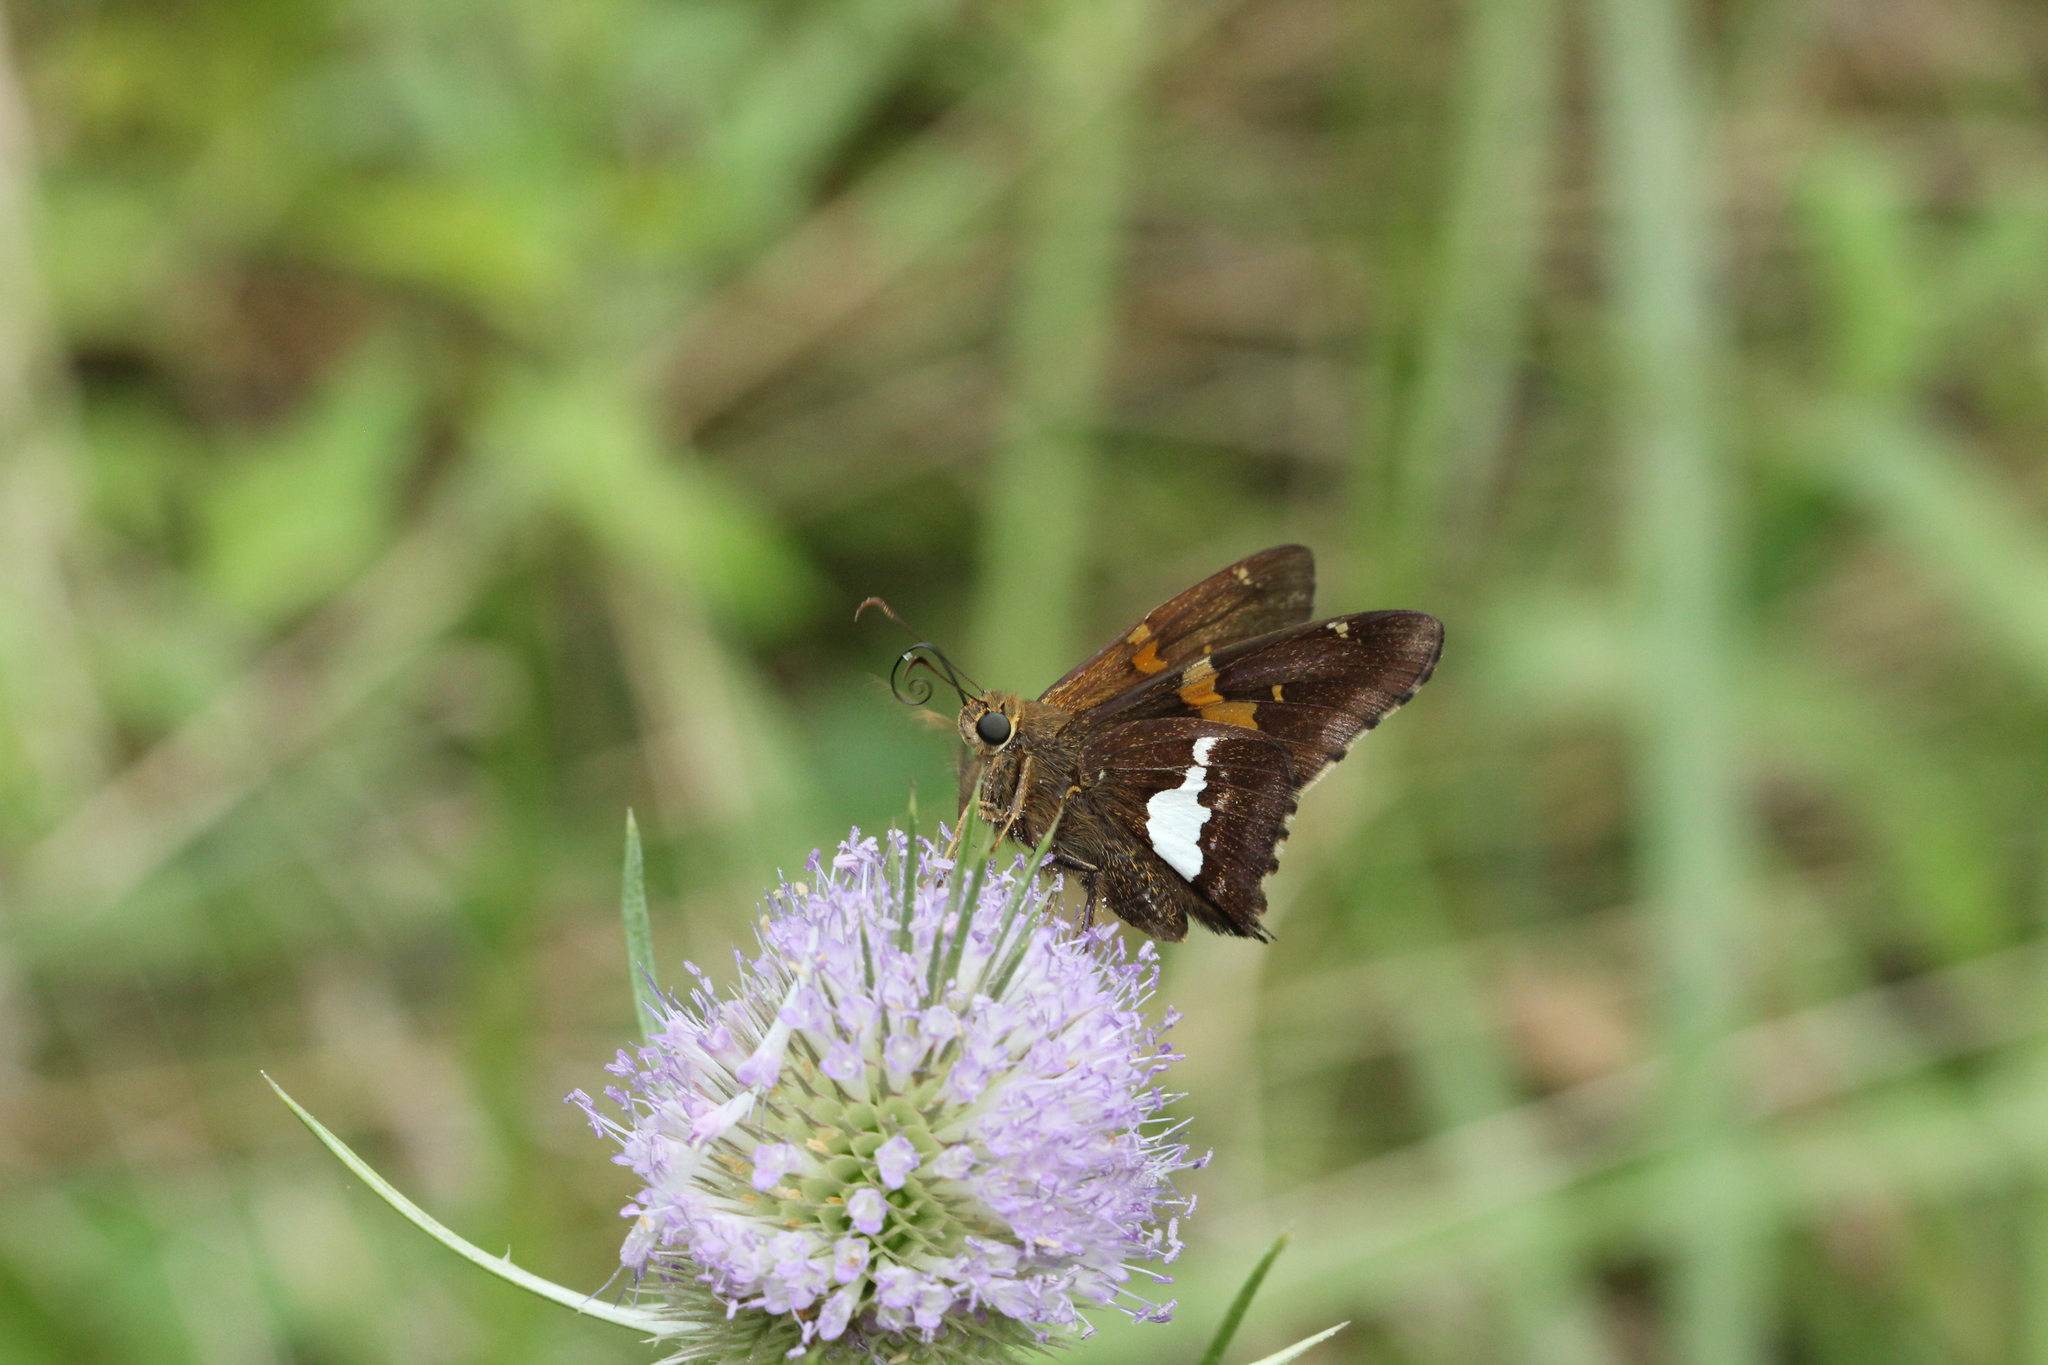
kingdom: Animalia
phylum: Arthropoda
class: Insecta
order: Lepidoptera
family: Hesperiidae
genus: Epargyreus
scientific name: Epargyreus clarus
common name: Silver-spotted skipper
